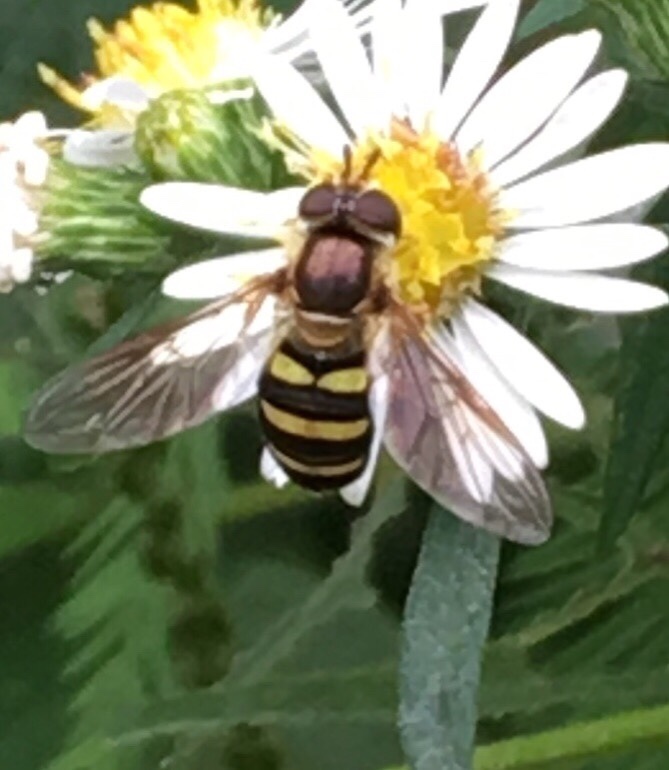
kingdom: Animalia
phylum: Arthropoda
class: Insecta
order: Diptera
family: Syrphidae
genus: Eupeodes
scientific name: Eupeodes
